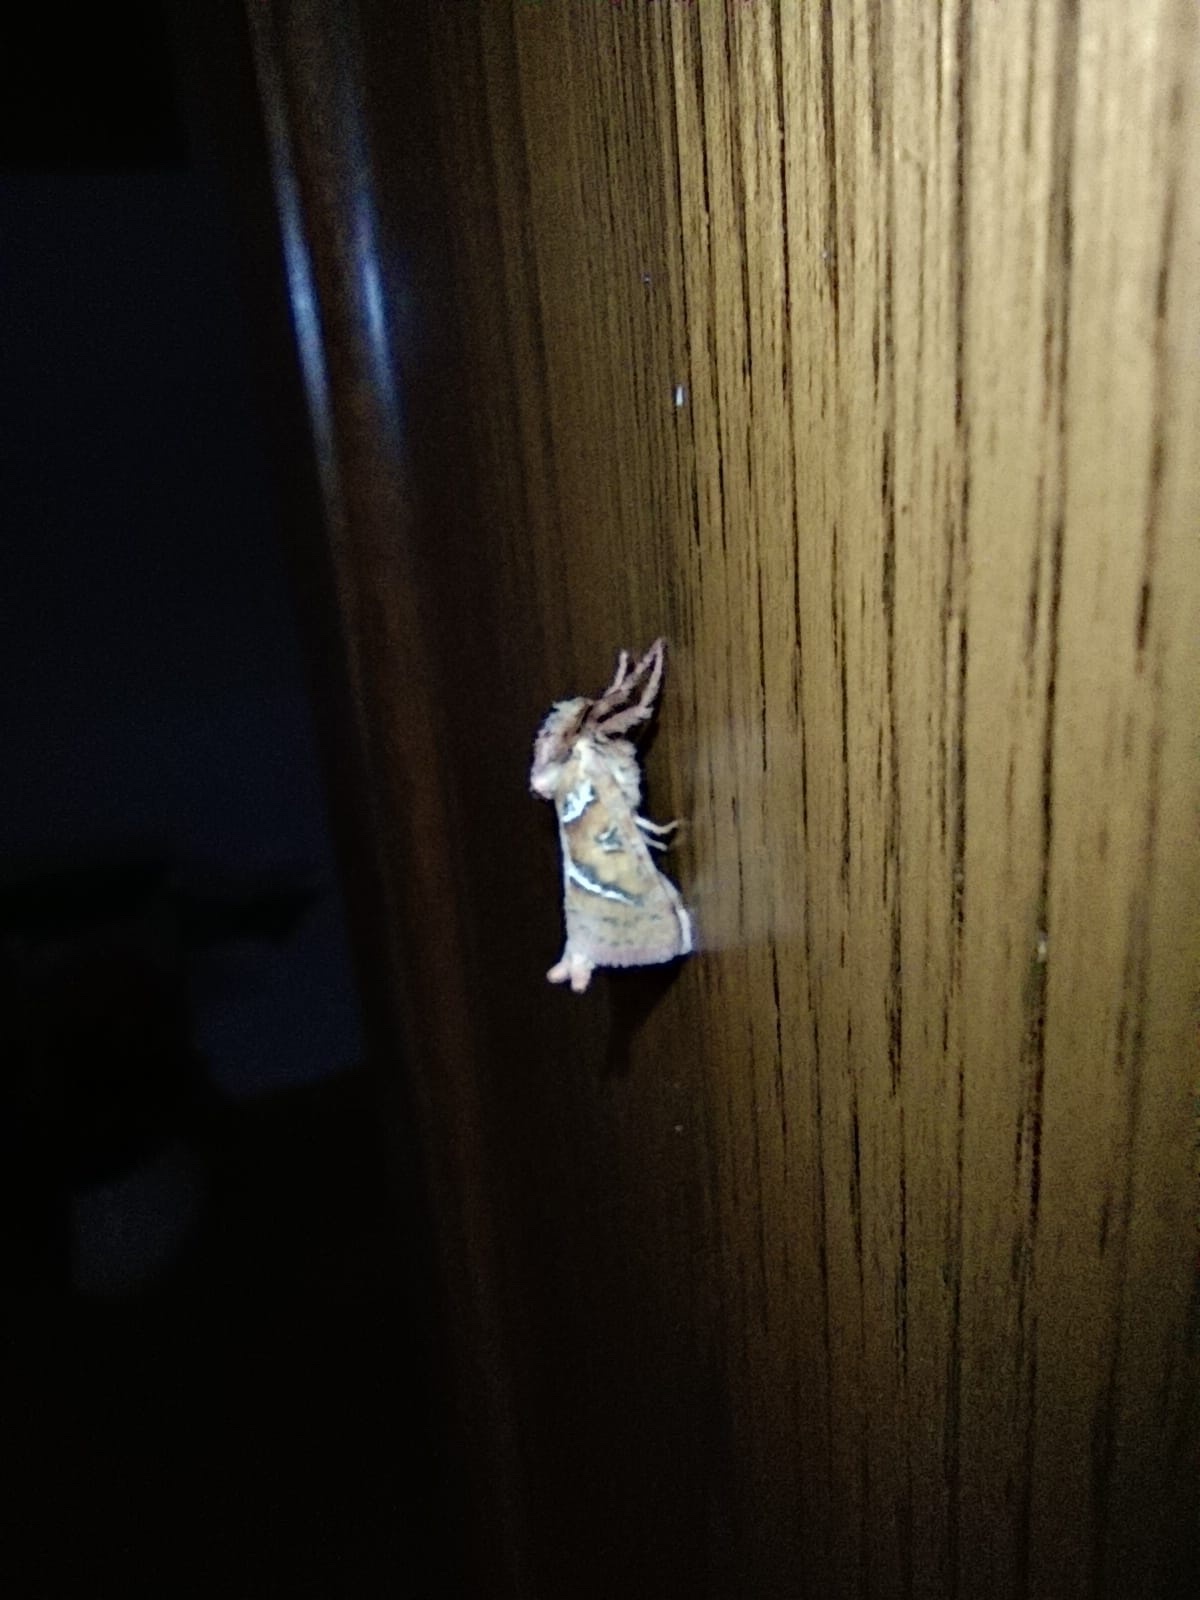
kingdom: Animalia
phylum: Arthropoda
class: Insecta
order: Lepidoptera
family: Hepialidae
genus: Triodia
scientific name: Triodia sylvina
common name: Orange swift
